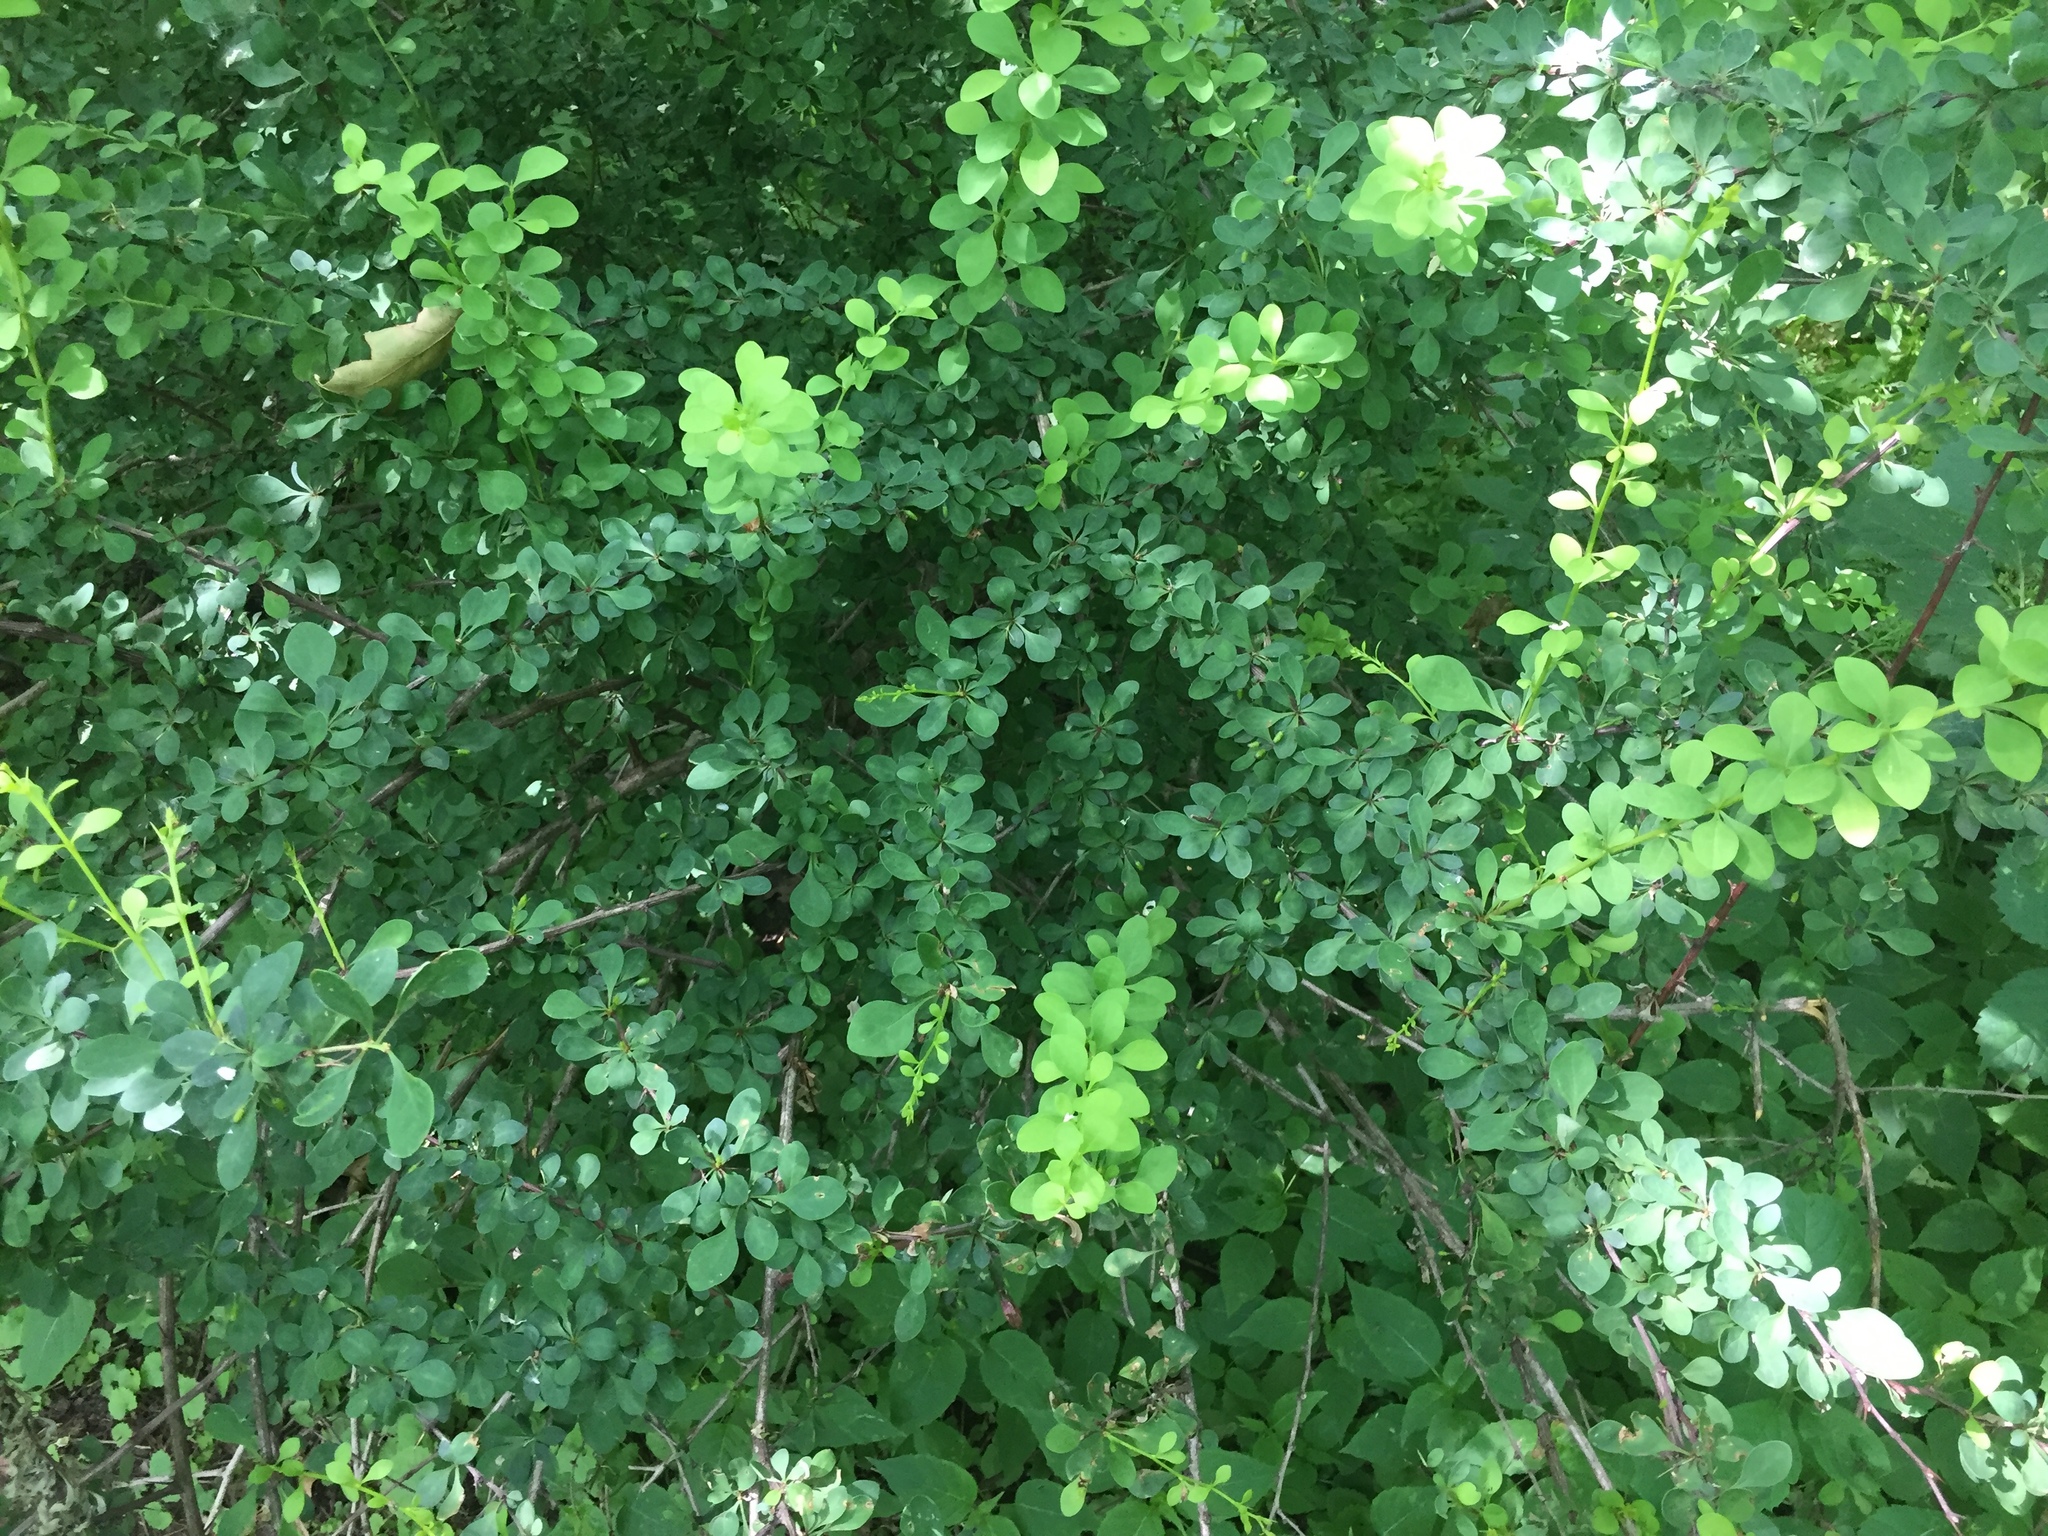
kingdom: Plantae
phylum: Tracheophyta
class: Magnoliopsida
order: Ranunculales
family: Berberidaceae
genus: Berberis
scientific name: Berberis thunbergii
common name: Japanese barberry
